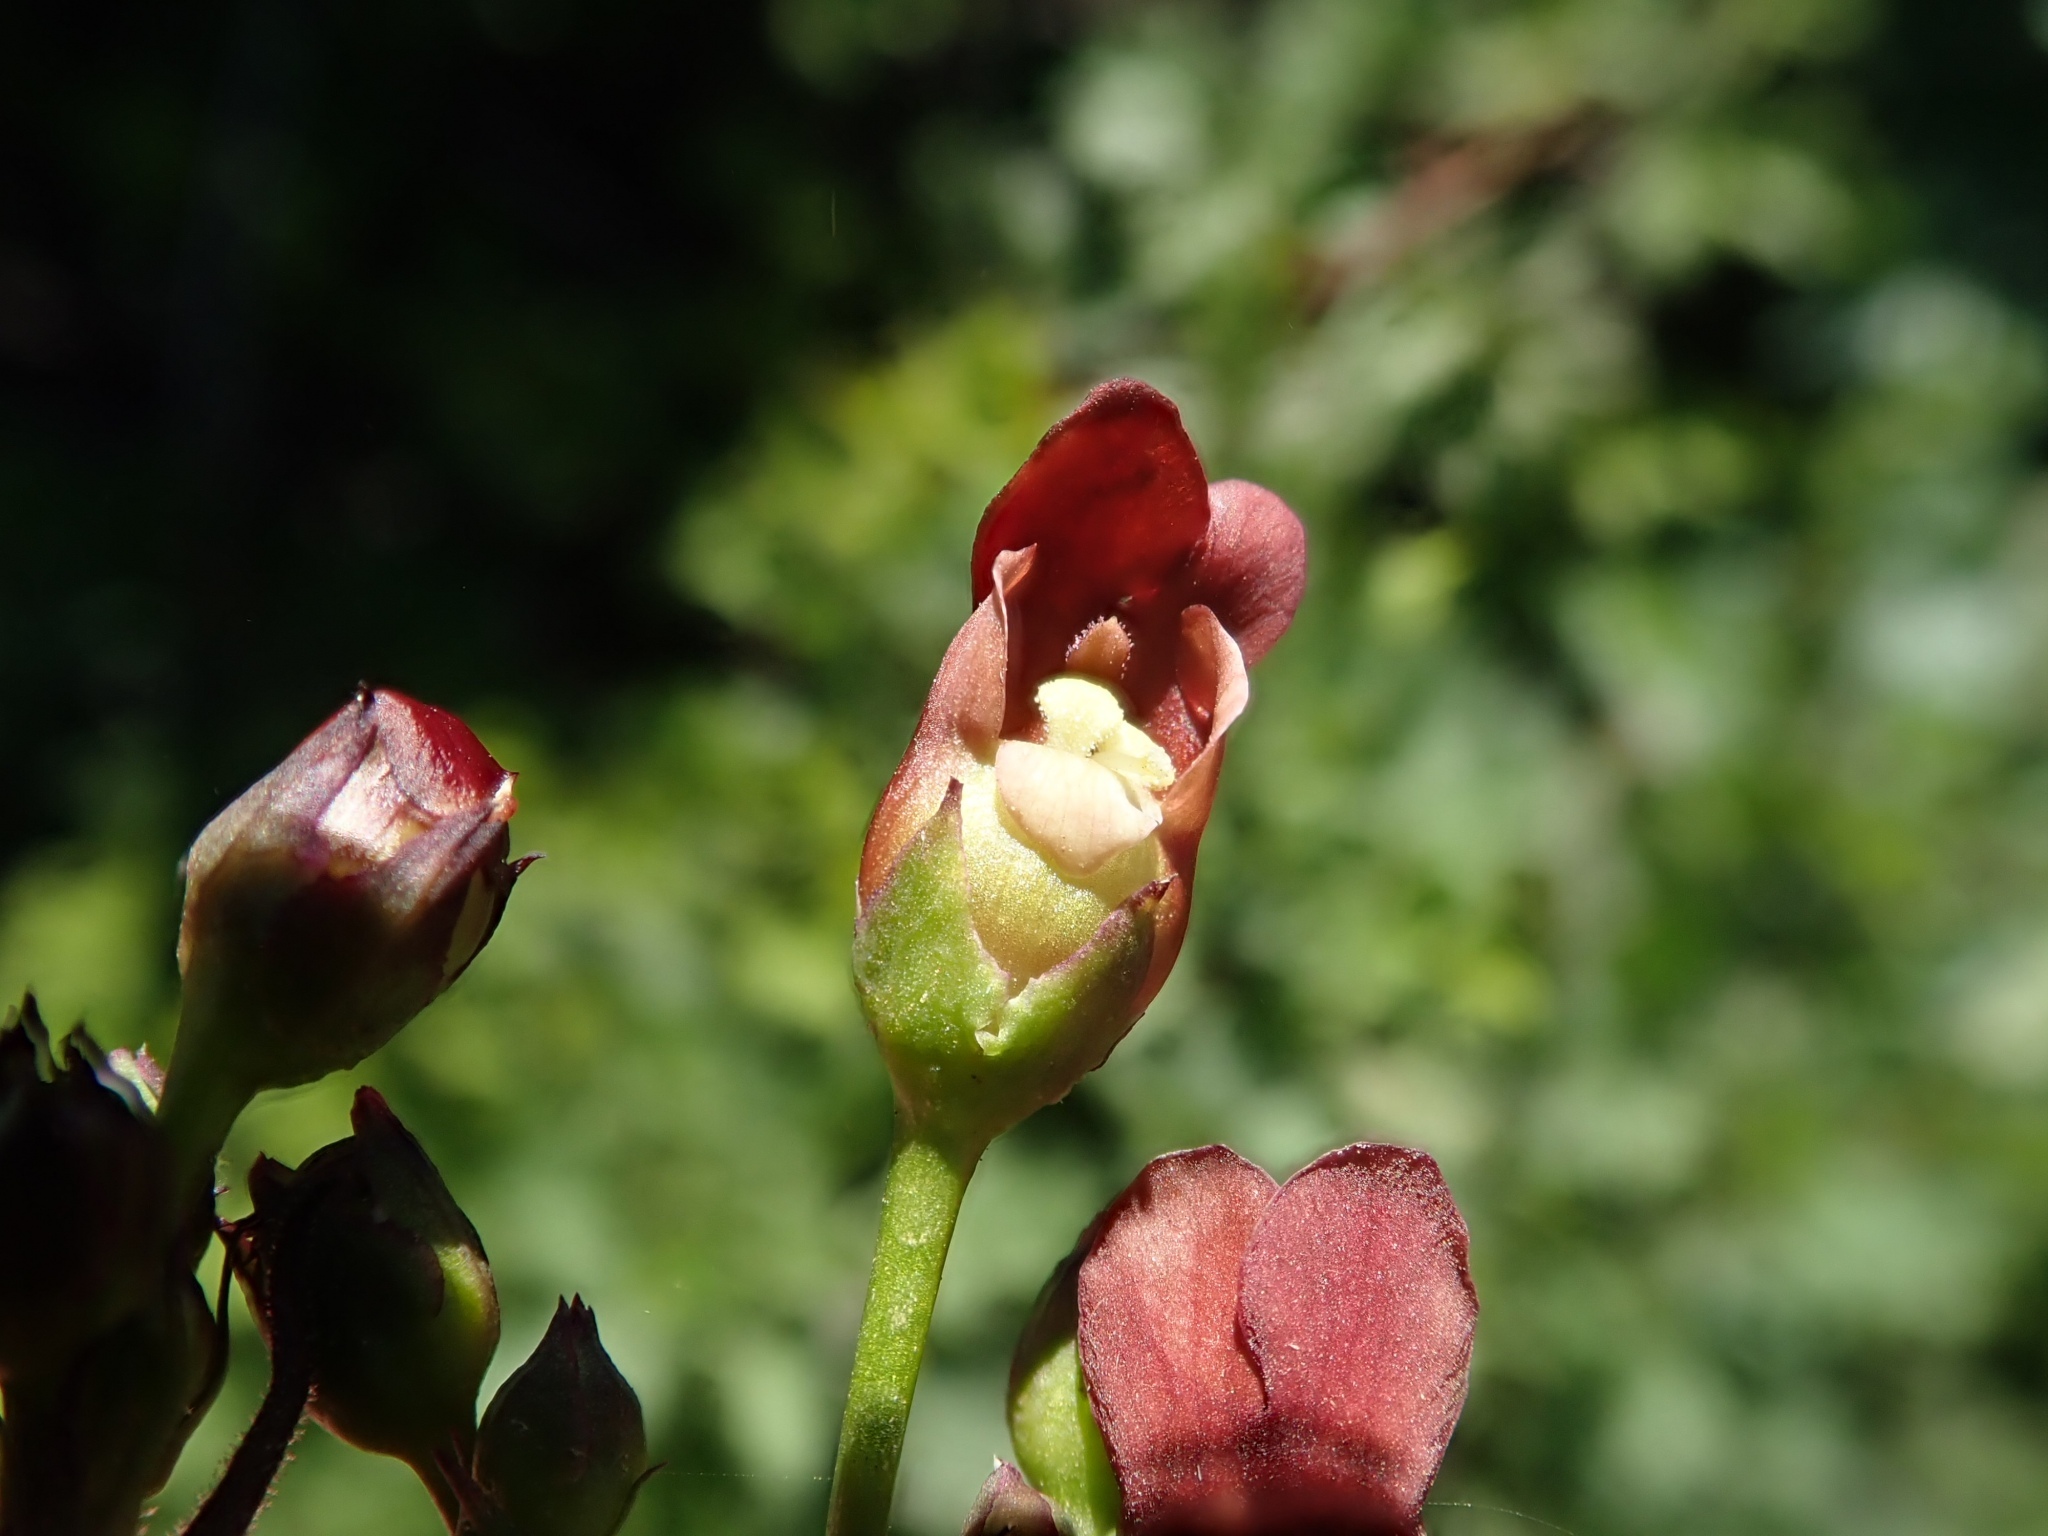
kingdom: Plantae
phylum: Tracheophyta
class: Magnoliopsida
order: Lamiales
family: Scrophulariaceae
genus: Scrophularia
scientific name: Scrophularia californica
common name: California figwort
